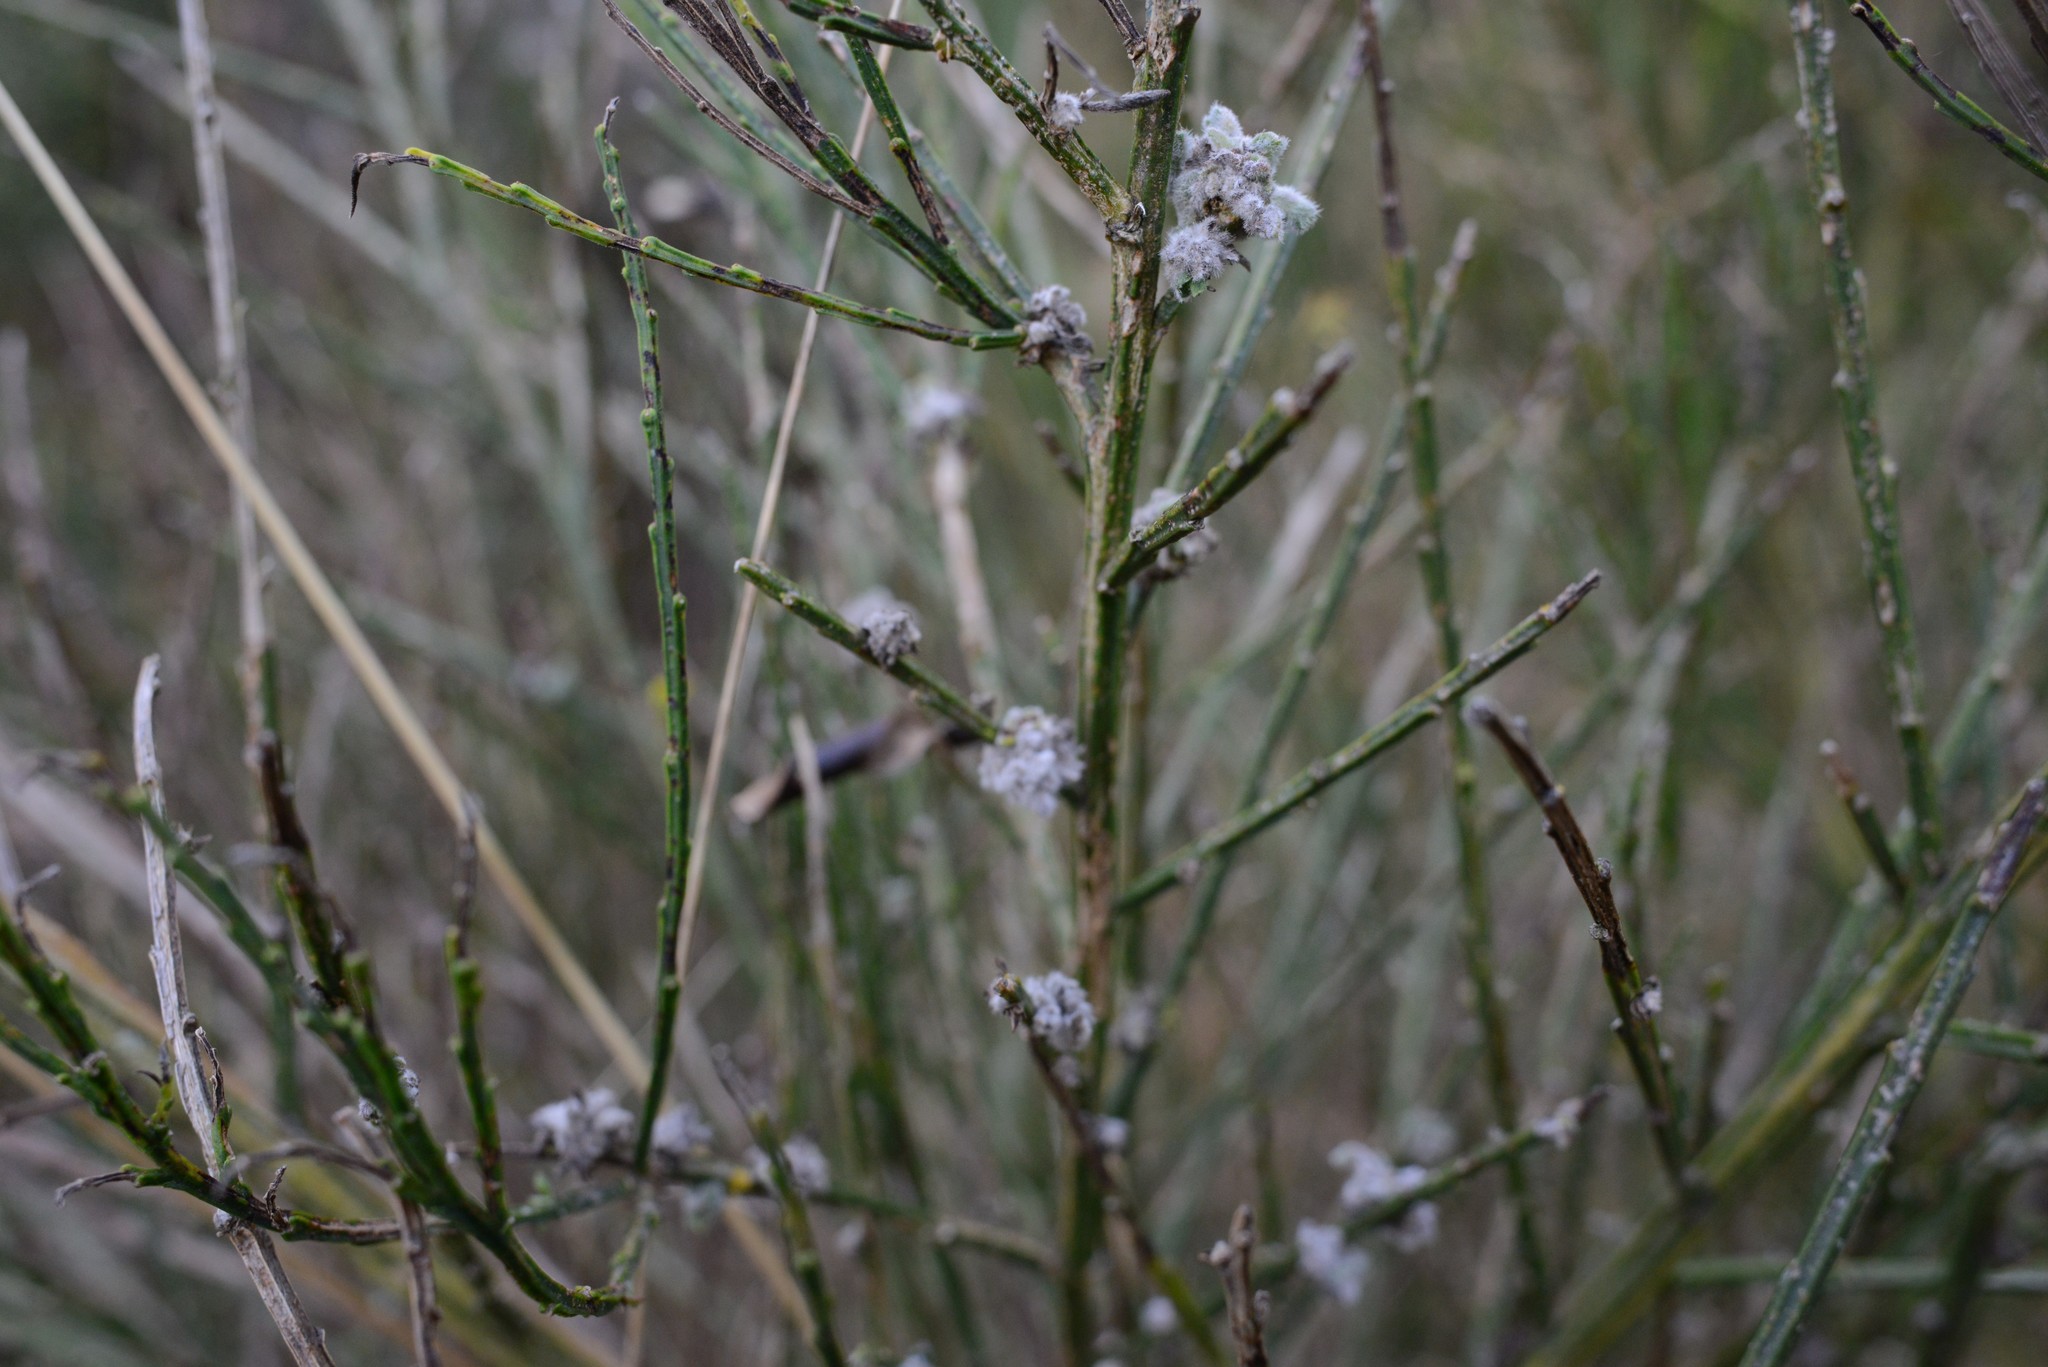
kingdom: Animalia
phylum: Arthropoda
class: Arachnida
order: Trombidiformes
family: Eriophyidae
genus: Aceria
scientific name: Aceria genistae
